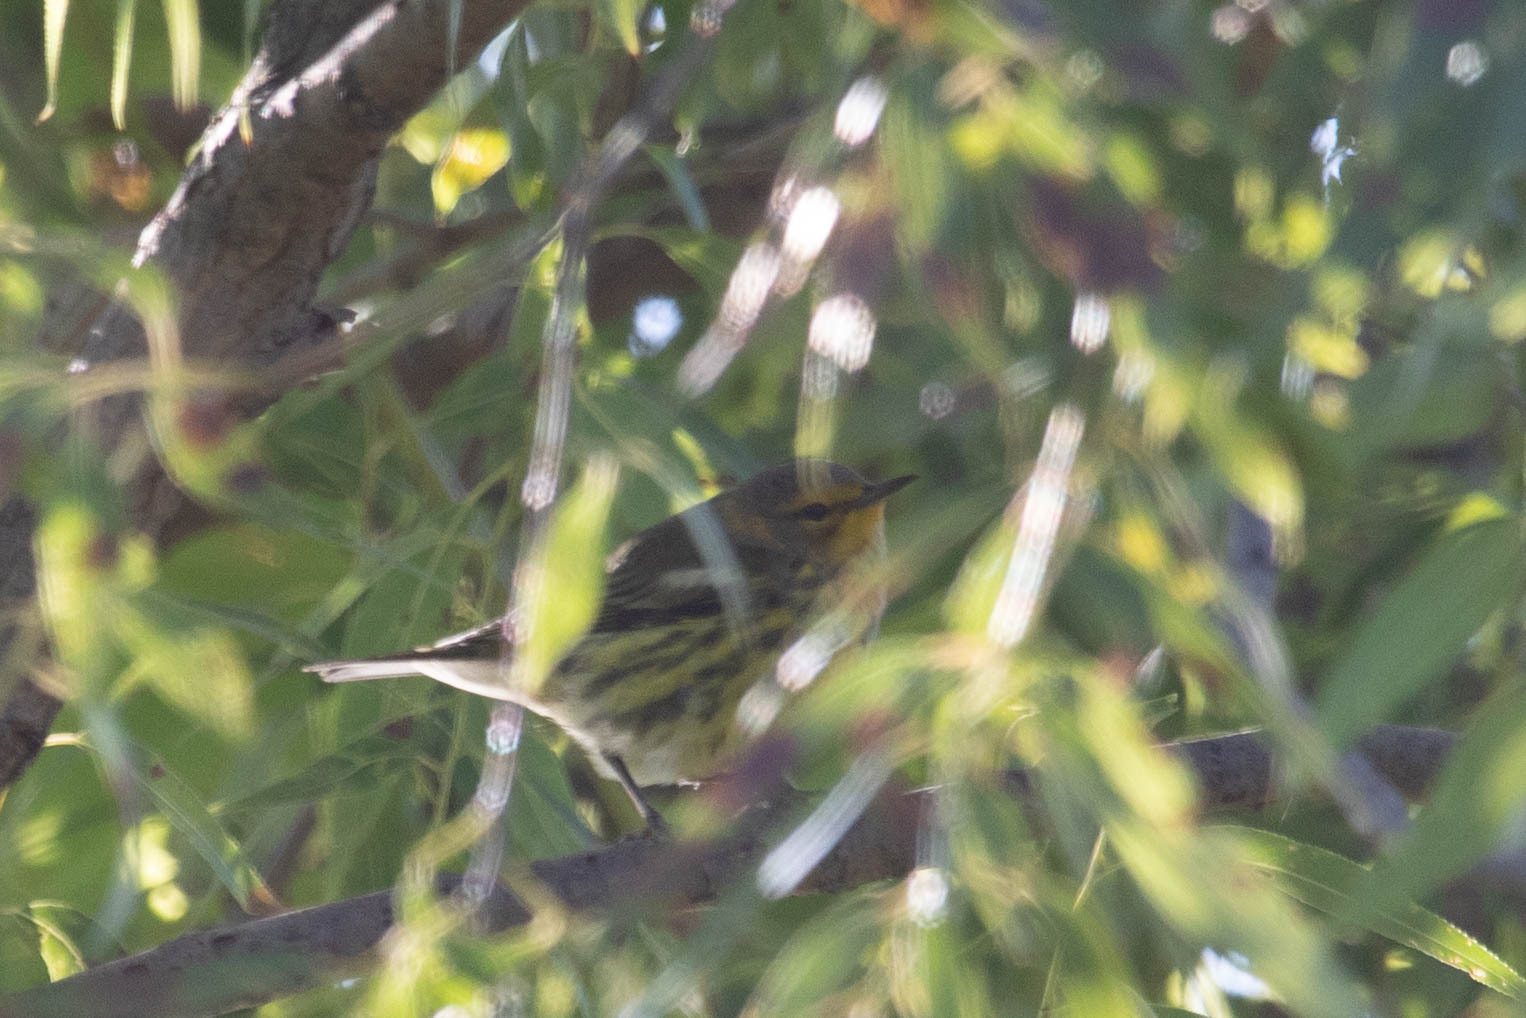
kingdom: Animalia
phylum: Chordata
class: Aves
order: Passeriformes
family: Parulidae
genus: Setophaga
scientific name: Setophaga tigrina
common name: Cape may warbler
